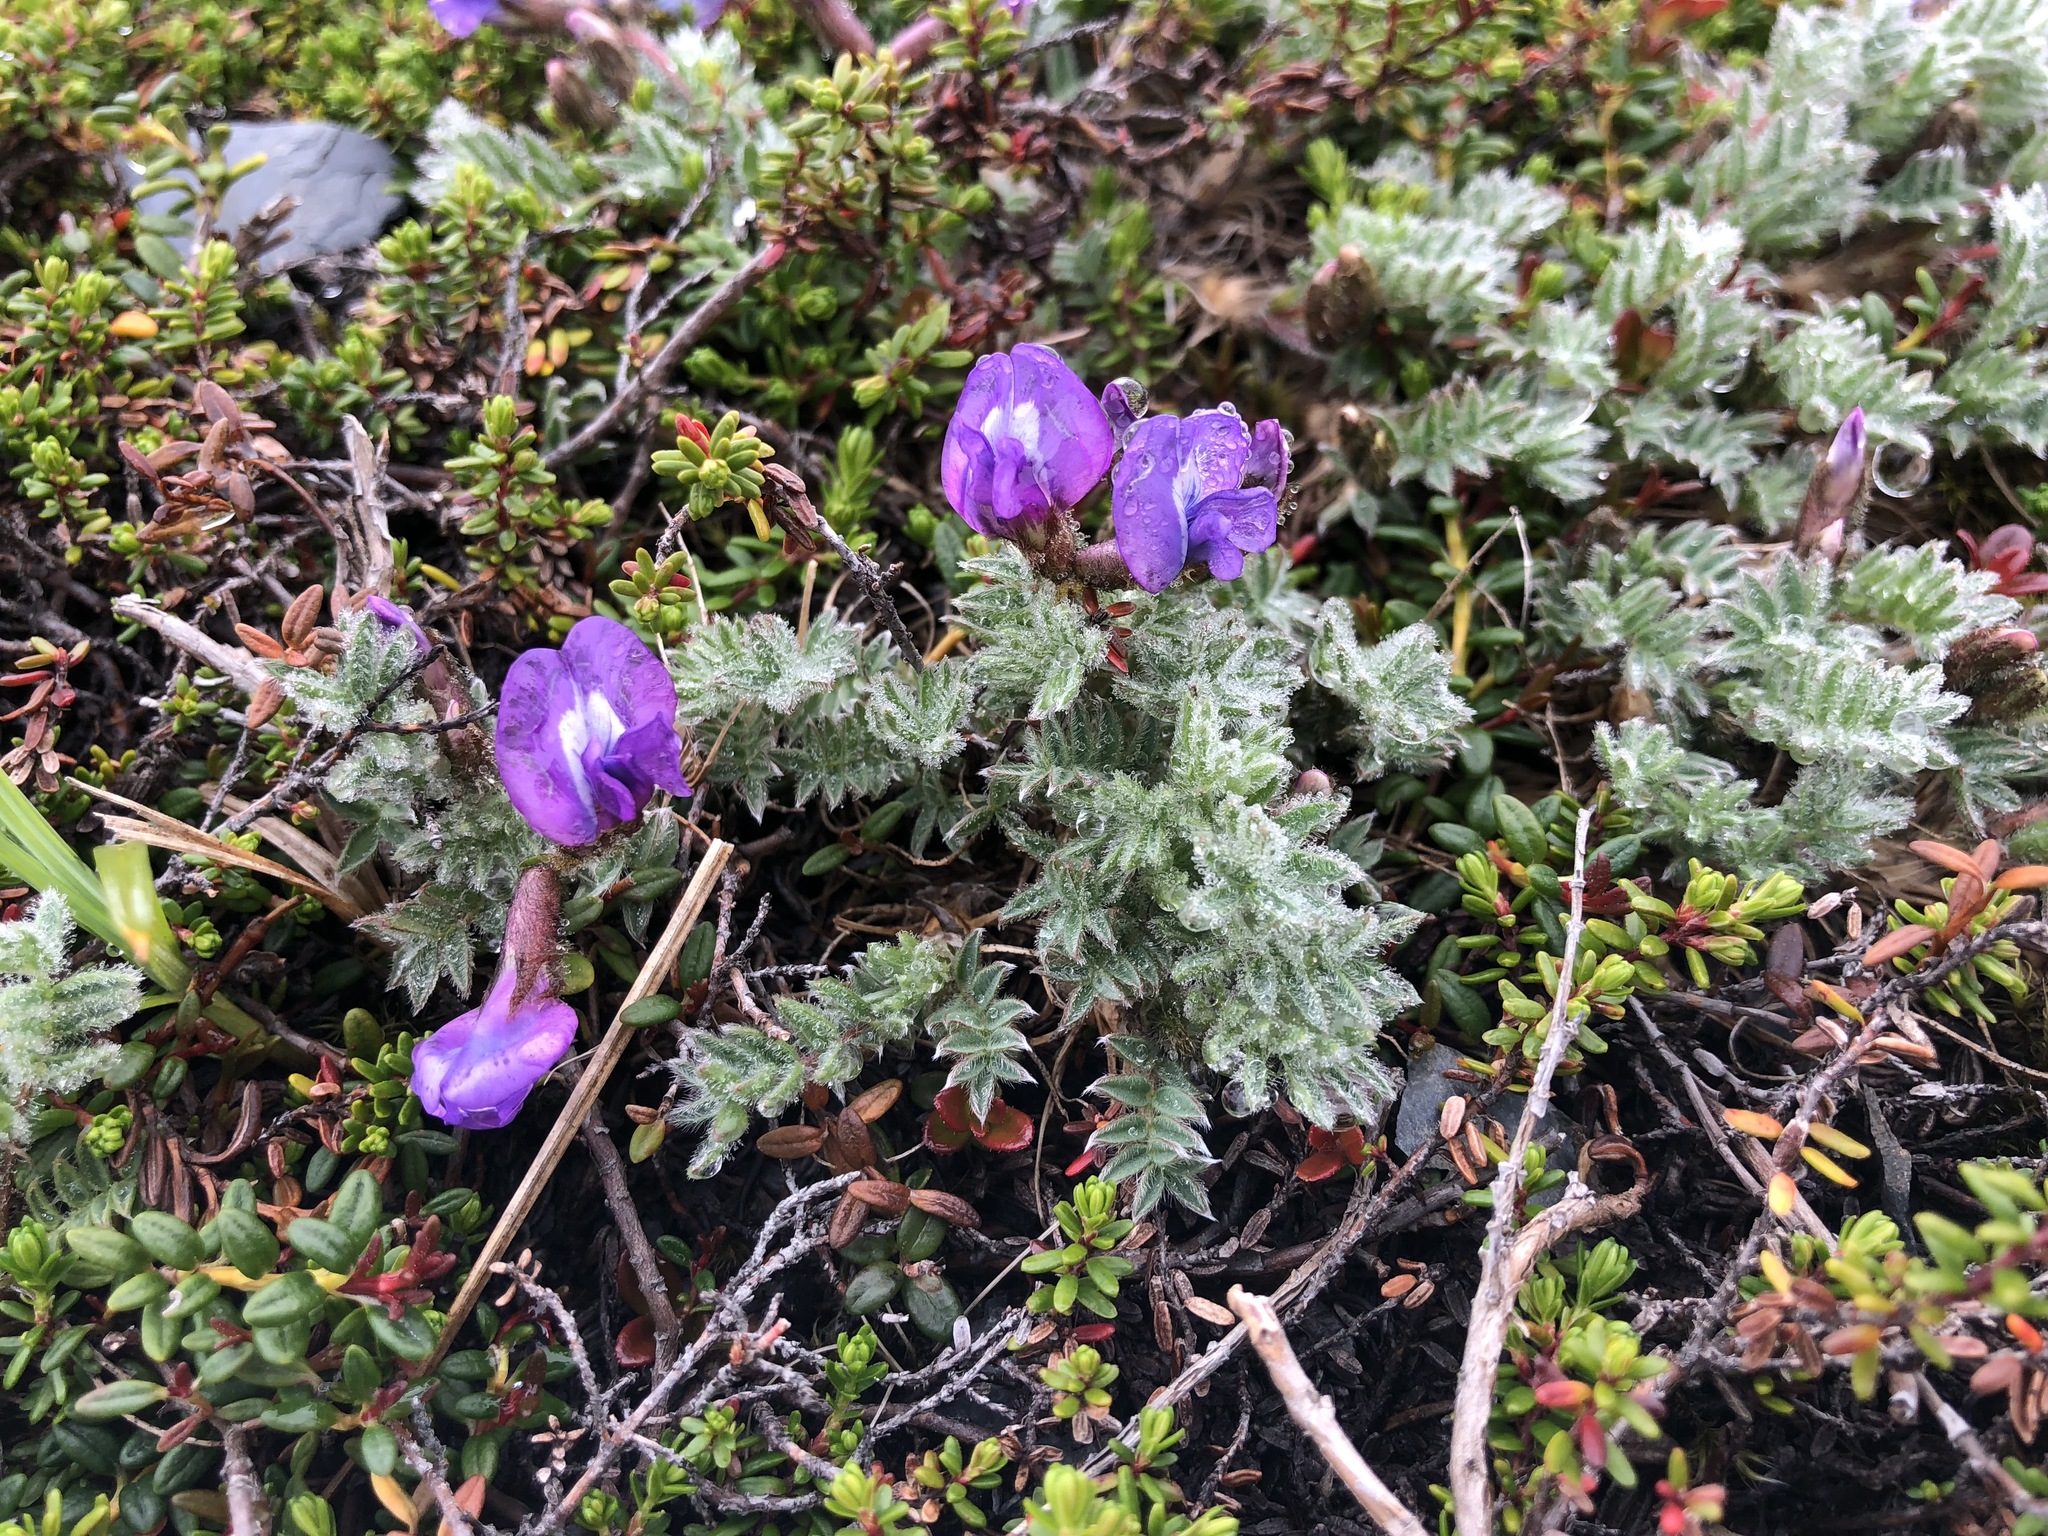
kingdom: Plantae
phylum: Tracheophyta
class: Magnoliopsida
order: Fabales
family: Fabaceae
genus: Oxytropis
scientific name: Oxytropis nigrescens
